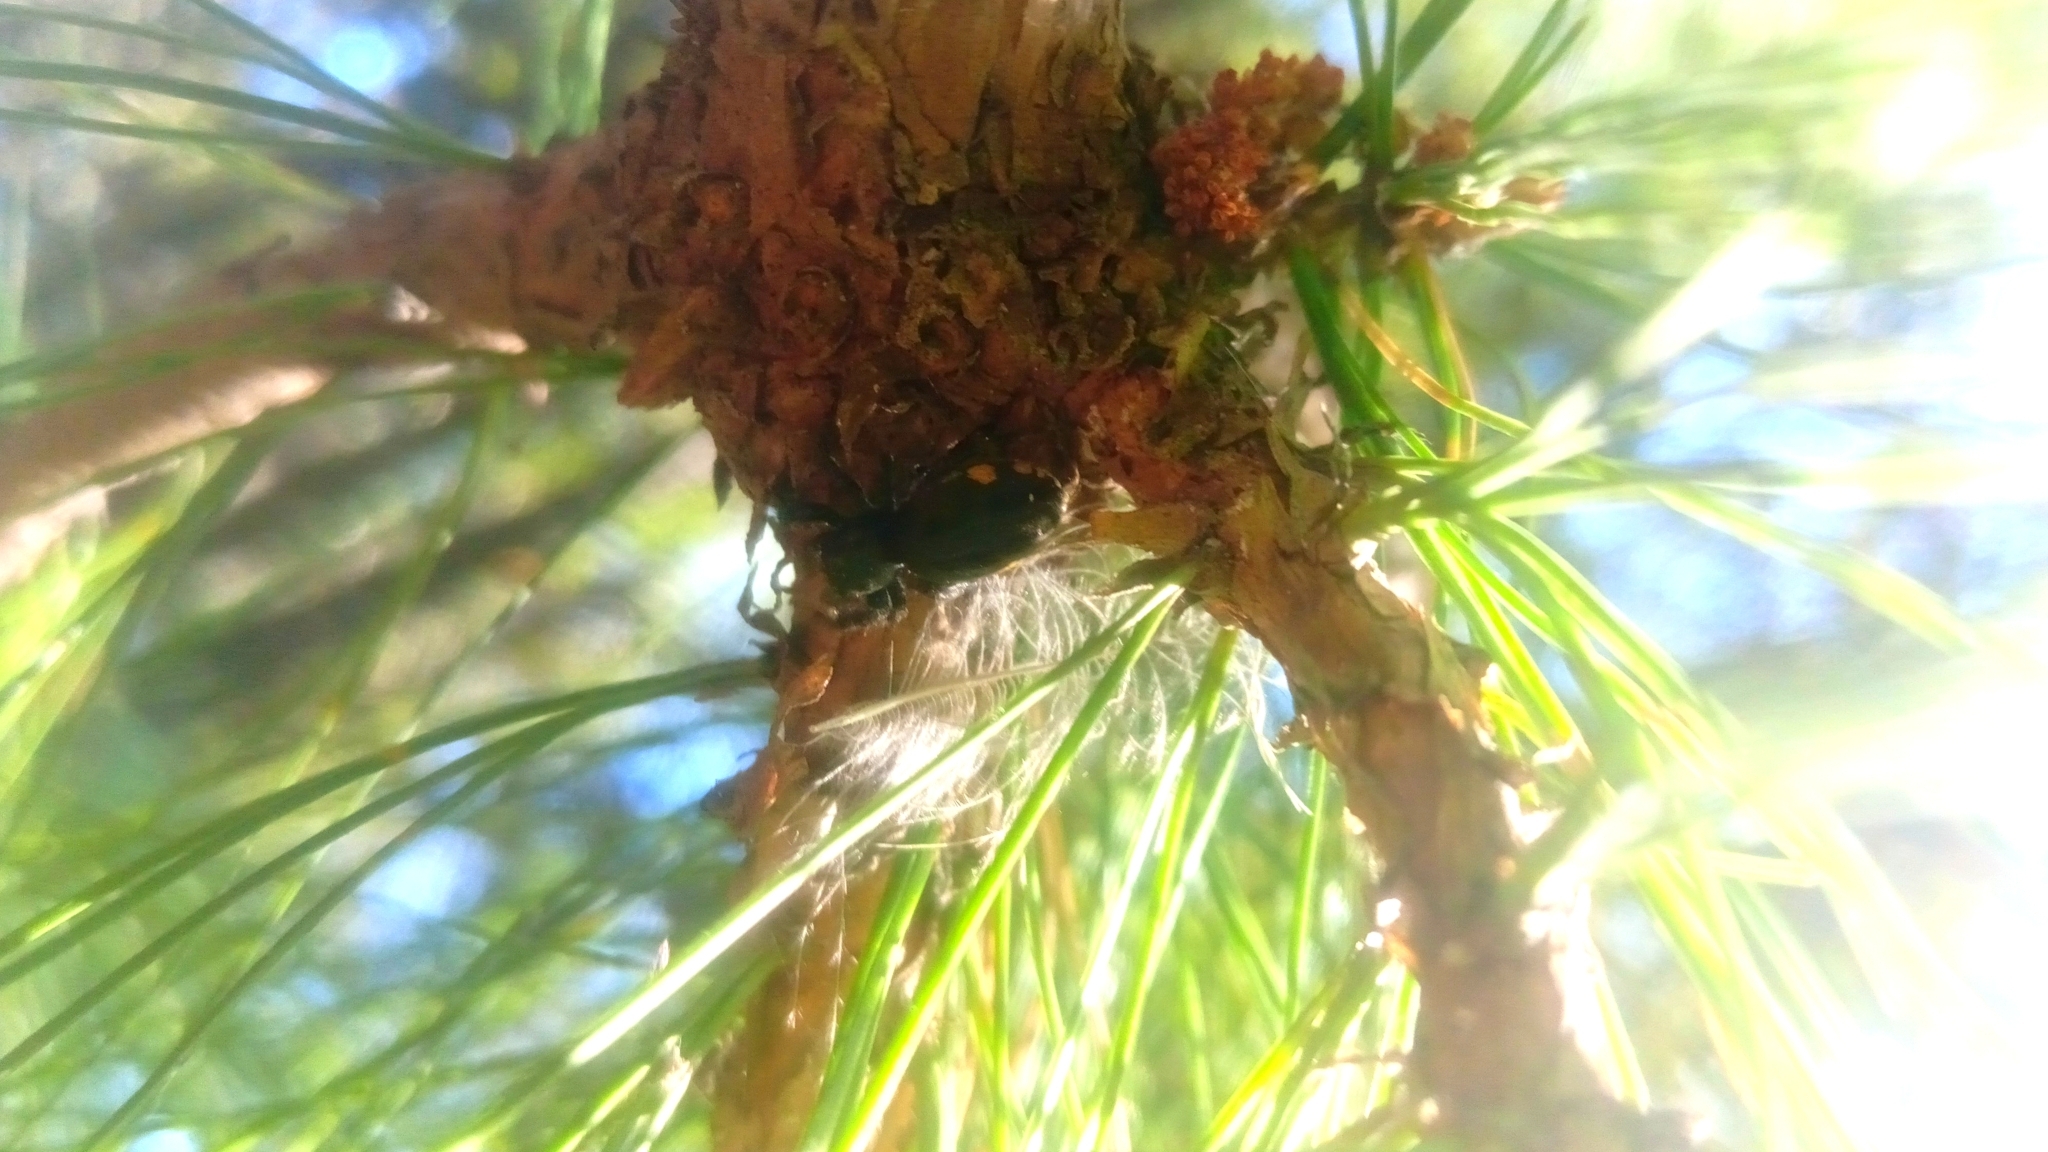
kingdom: Animalia
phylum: Arthropoda
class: Arachnida
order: Araneae
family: Salticidae
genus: Paraphidippus
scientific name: Paraphidippus aurantius
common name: Jumping spiders
